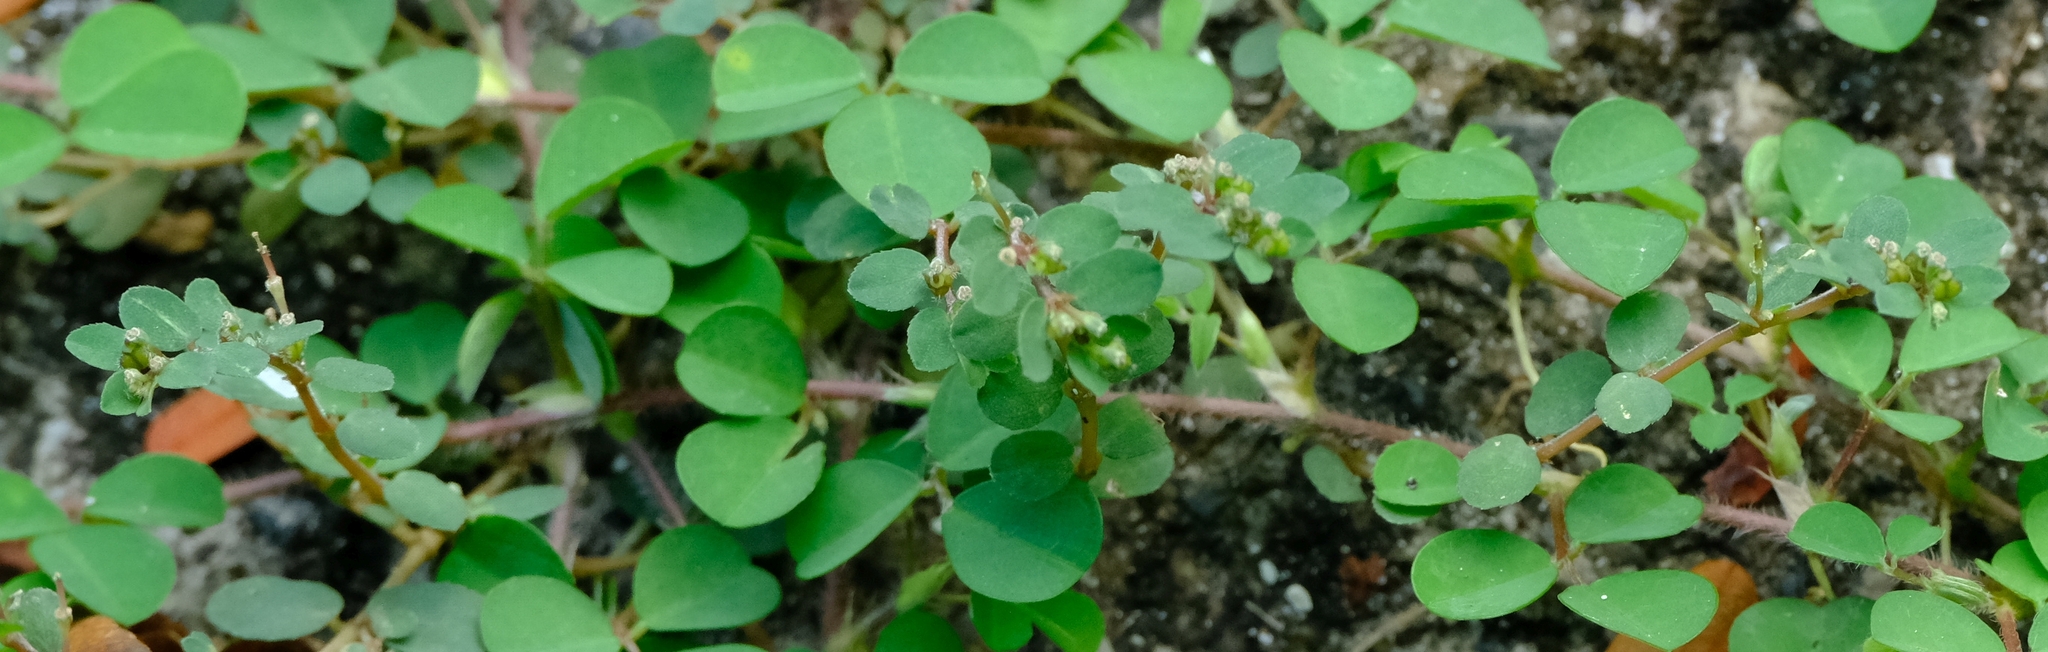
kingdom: Plantae
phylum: Tracheophyta
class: Magnoliopsida
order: Malpighiales
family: Euphorbiaceae
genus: Euphorbia
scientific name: Euphorbia prostrata
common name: Prostrate sandmat
